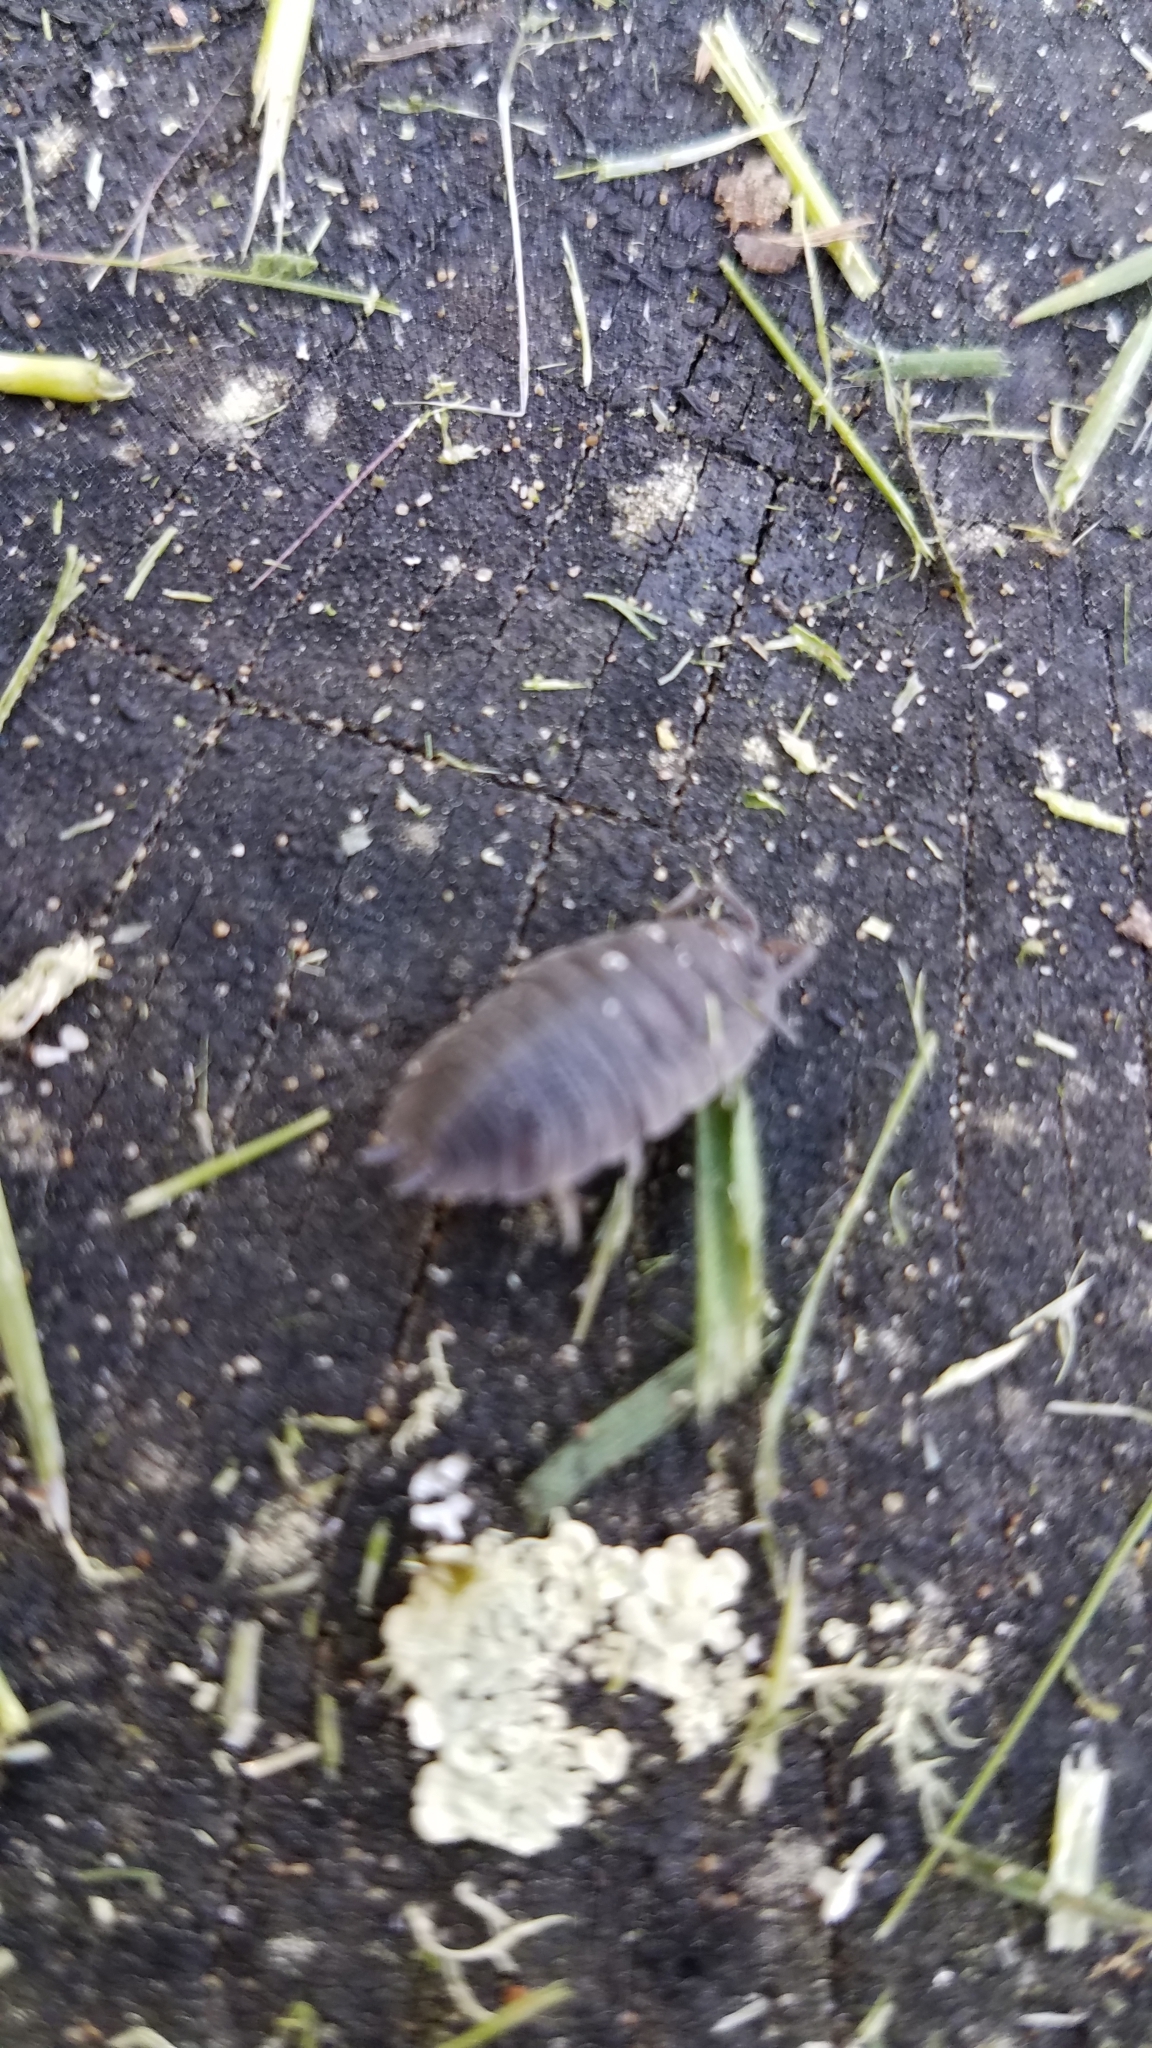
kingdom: Animalia
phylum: Arthropoda
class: Malacostraca
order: Isopoda
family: Porcellionidae
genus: Porcellio
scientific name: Porcellio scaber
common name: Common rough woodlouse
